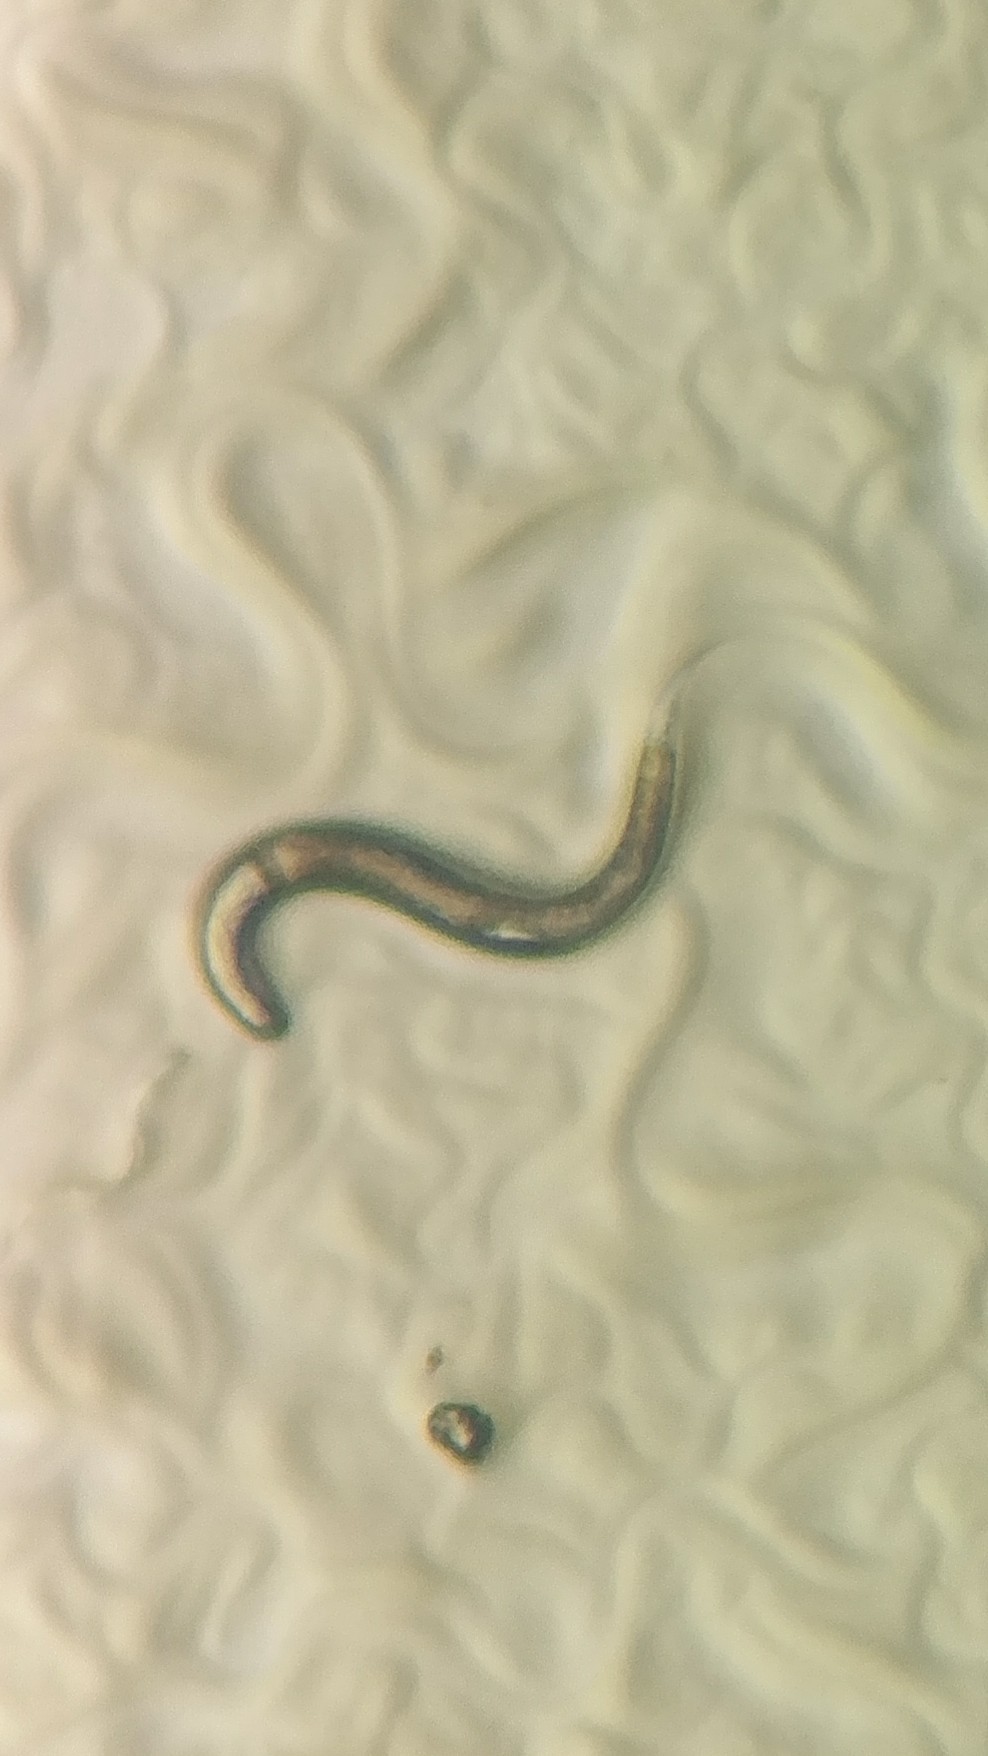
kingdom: Animalia
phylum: Nematoda
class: Chromadorea
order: Rhabditida
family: Rhabditidae
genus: Caenorhabditis
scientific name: Caenorhabditis elegans
